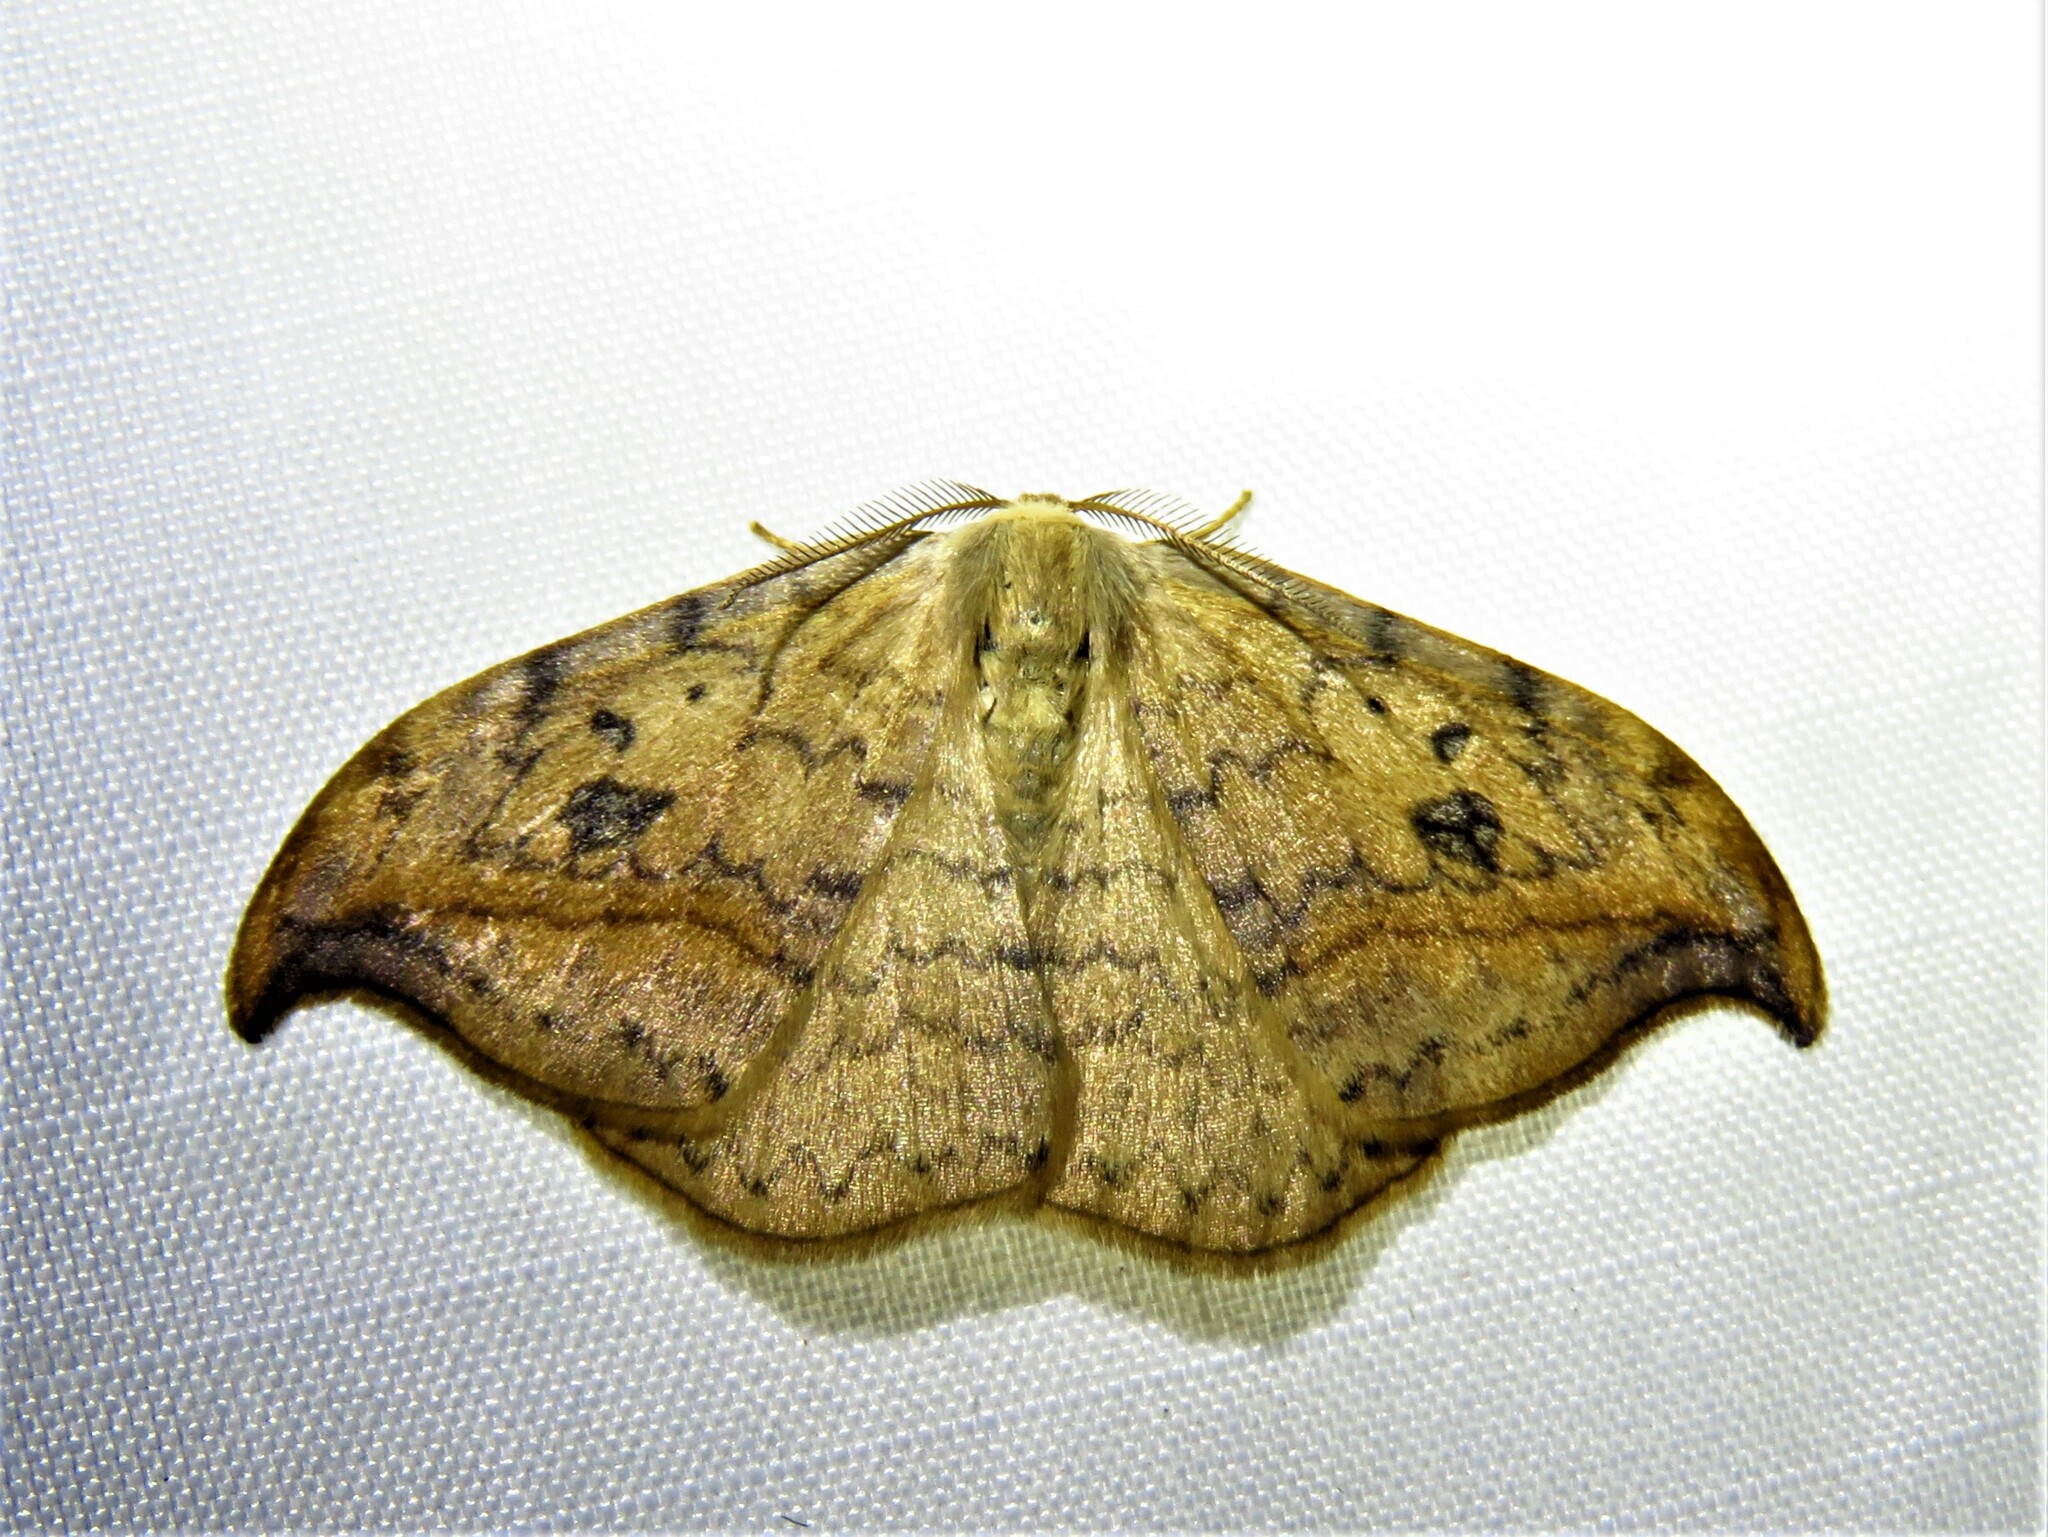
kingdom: Animalia
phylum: Arthropoda
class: Insecta
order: Lepidoptera
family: Drepanidae
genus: Drepana
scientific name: Drepana falcataria
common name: Pebble hook-tip
